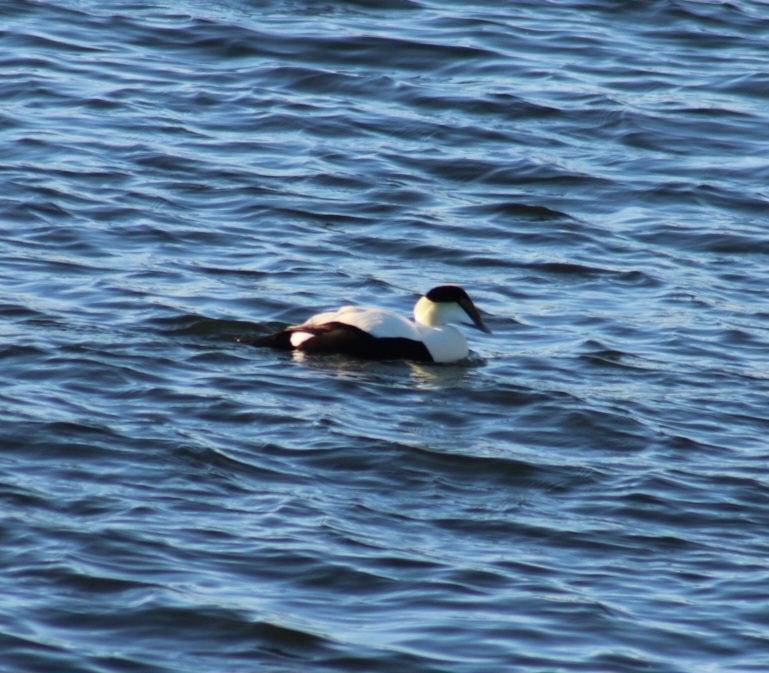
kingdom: Animalia
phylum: Chordata
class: Aves
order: Anseriformes
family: Anatidae
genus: Somateria
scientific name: Somateria mollissima
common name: Common eider
